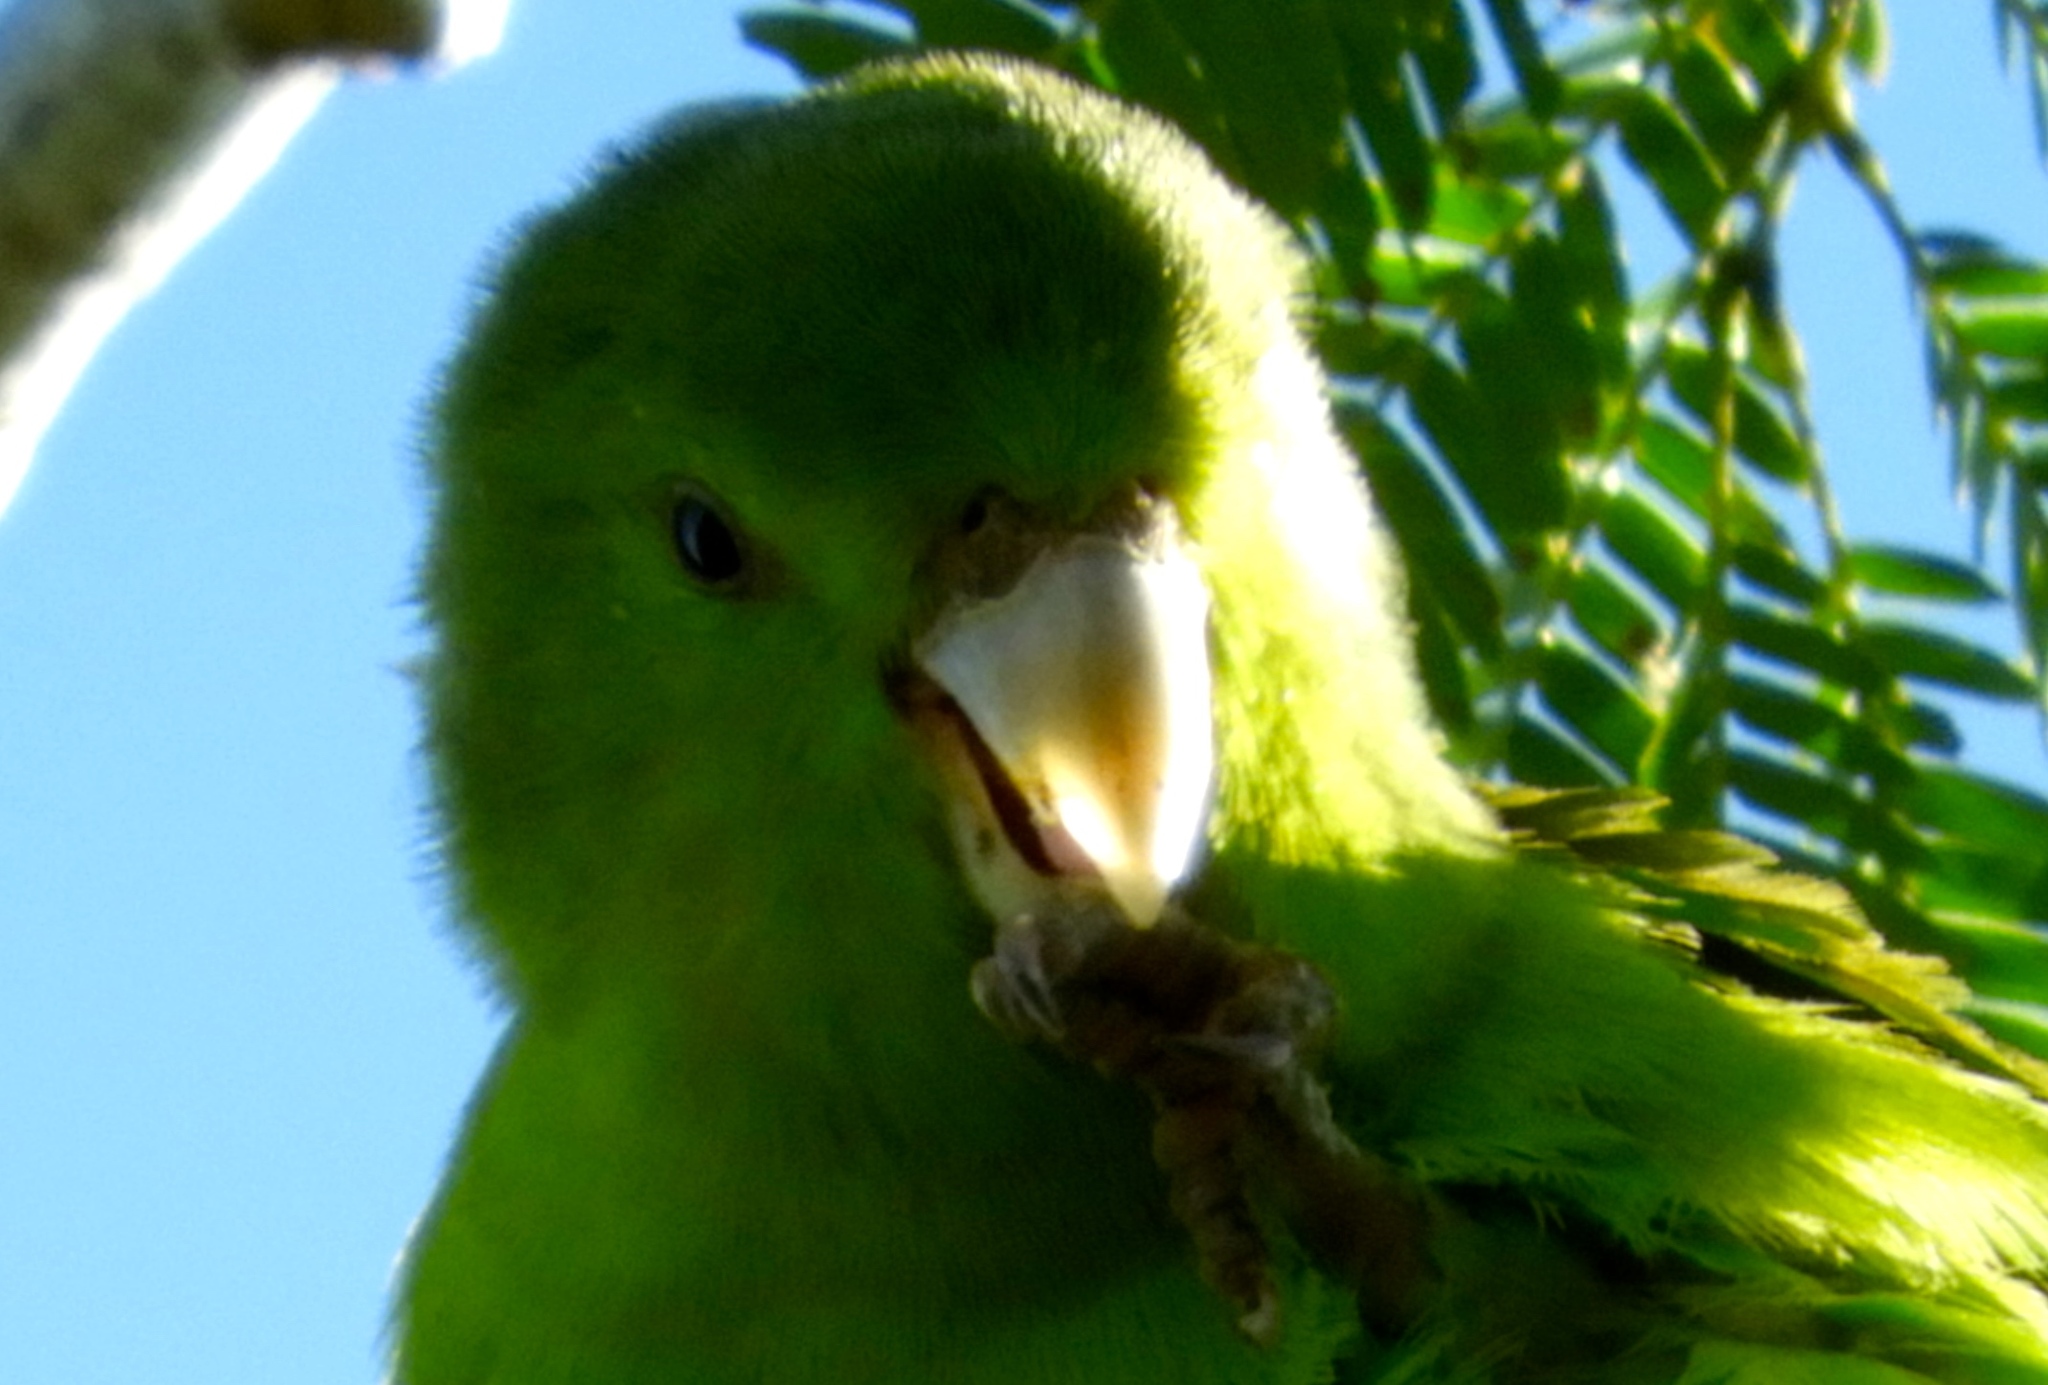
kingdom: Animalia
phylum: Chordata
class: Aves
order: Psittaciformes
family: Psittacidae
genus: Forpus
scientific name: Forpus cyanopygius
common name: Mexican parrotlet
